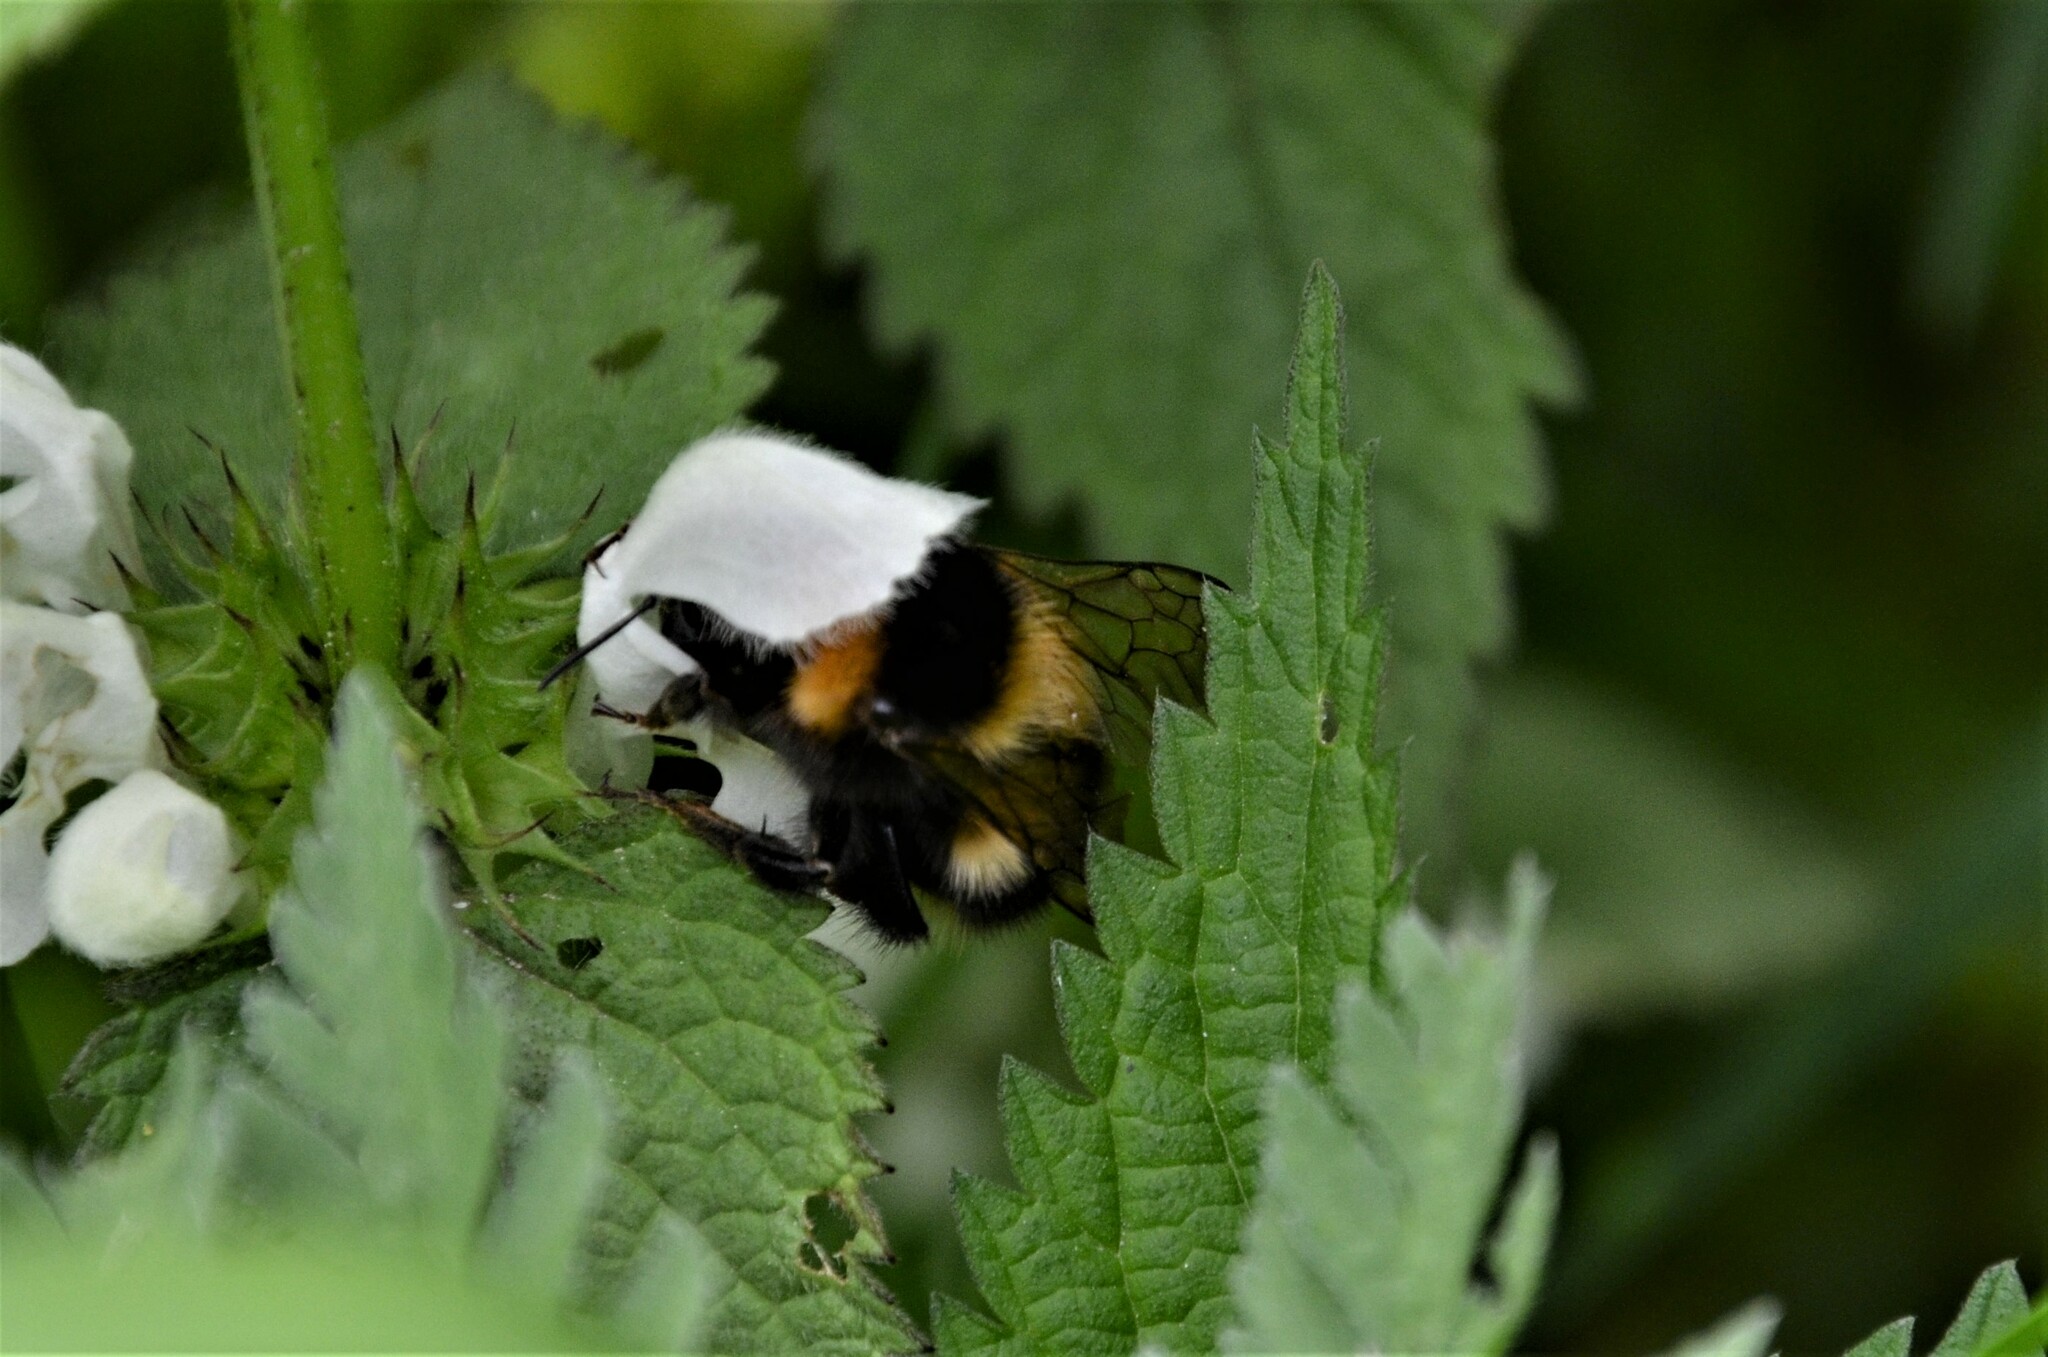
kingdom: Animalia
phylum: Arthropoda
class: Insecta
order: Hymenoptera
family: Apidae
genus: Bombus
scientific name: Bombus hortorum
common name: Garden bumblebee
